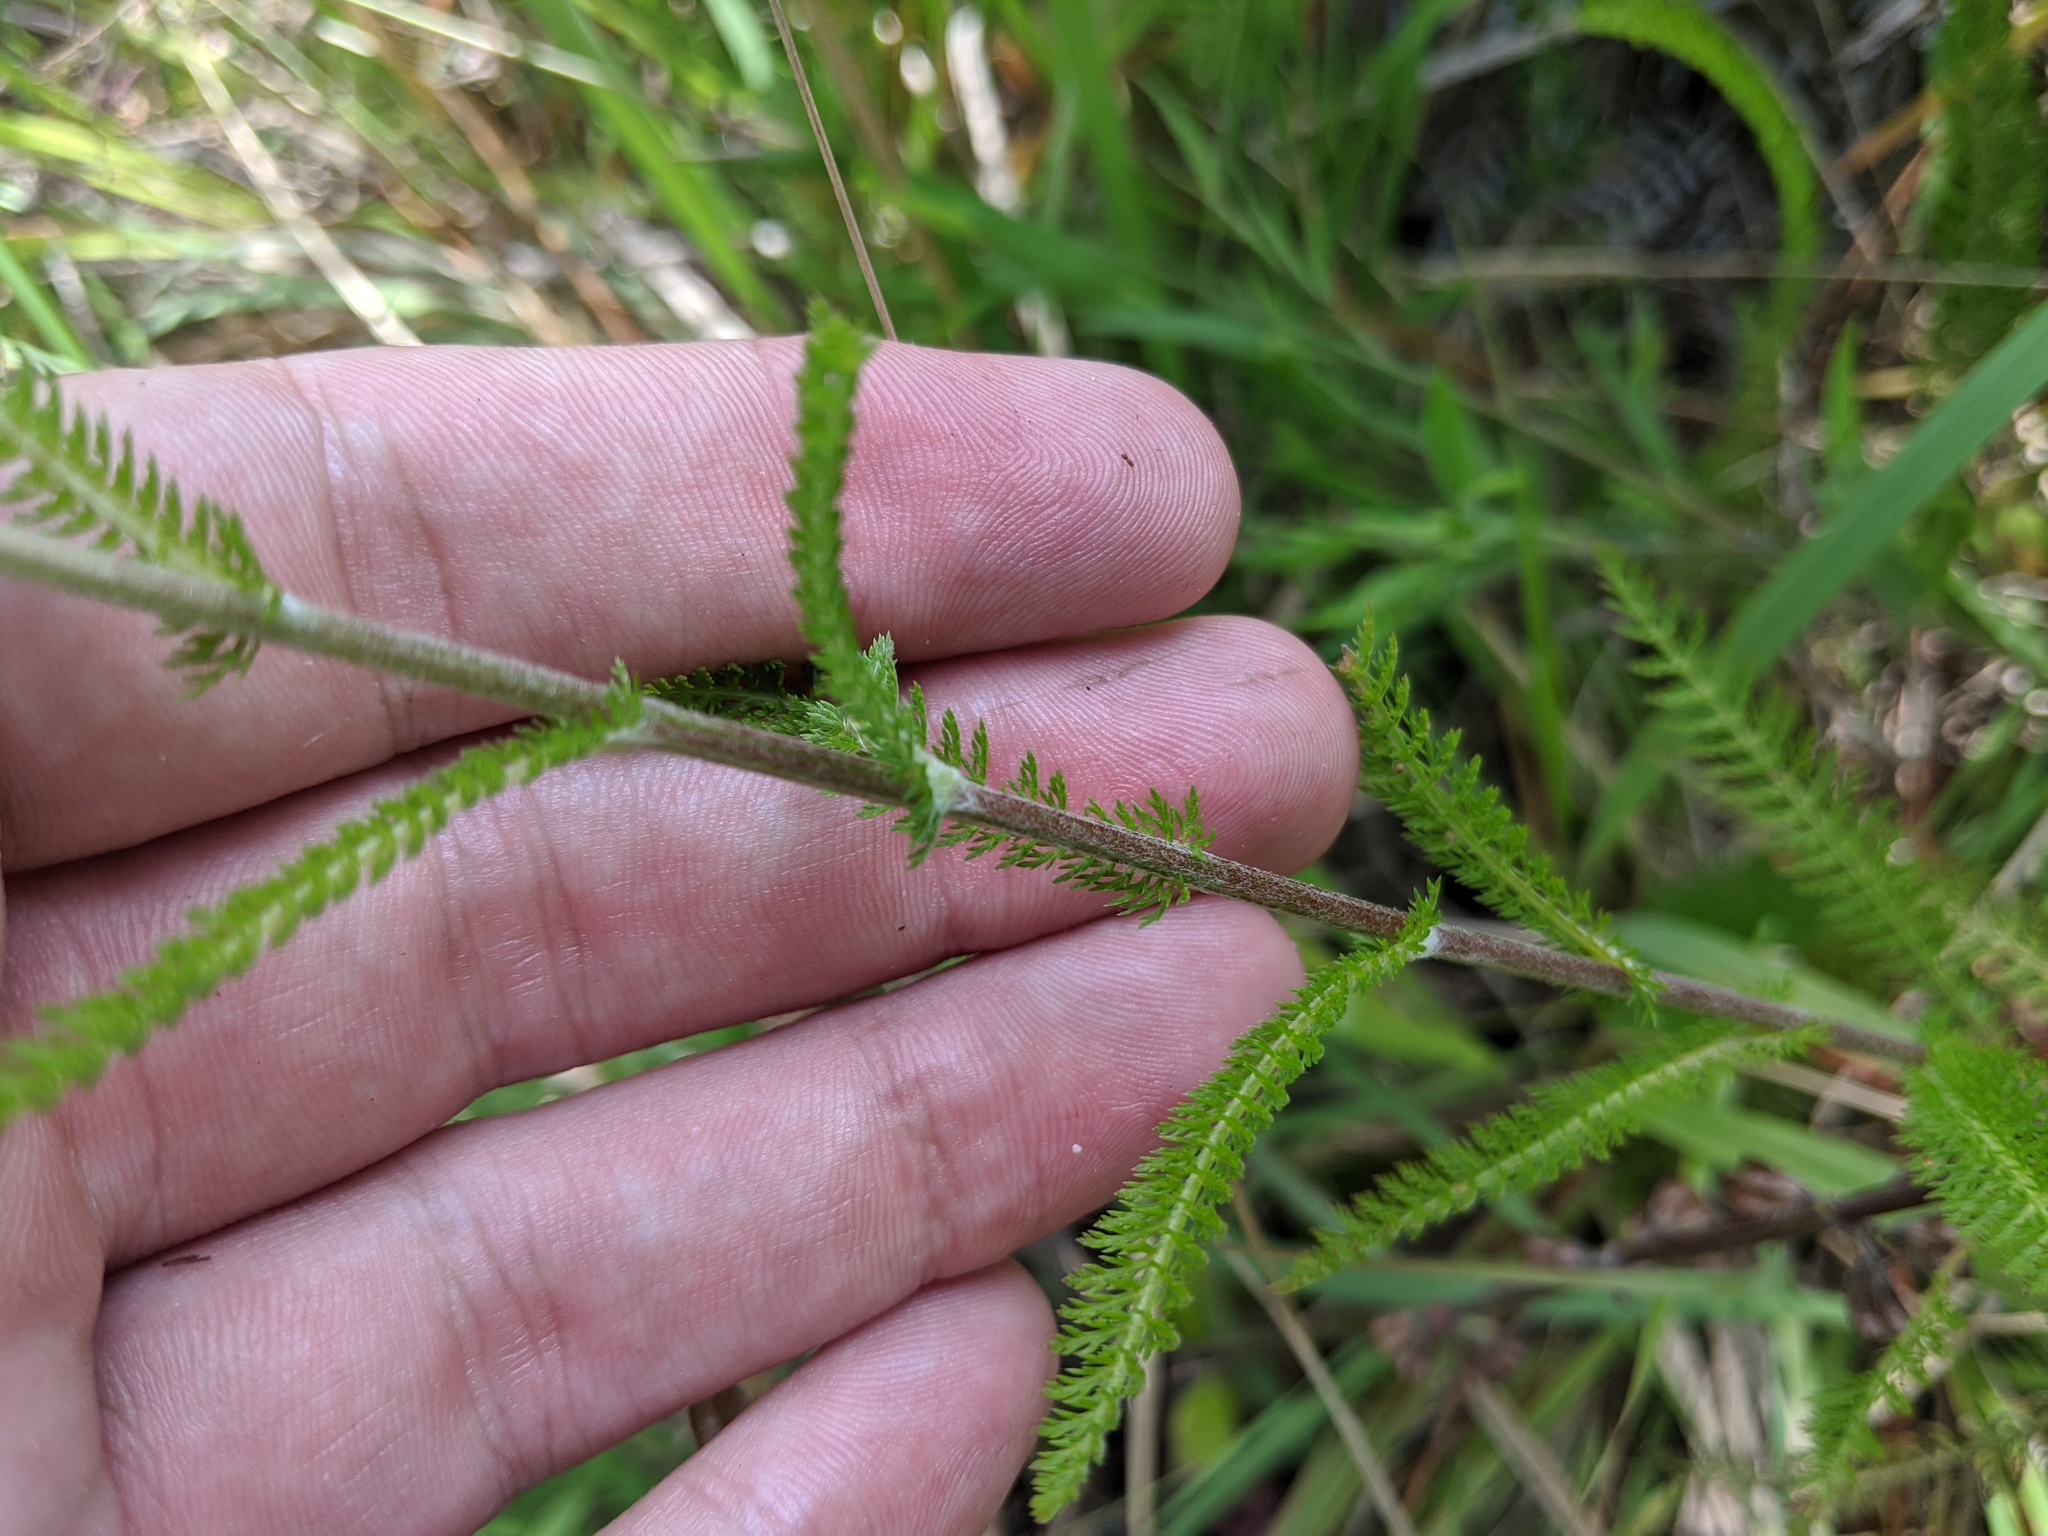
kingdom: Plantae
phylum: Tracheophyta
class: Magnoliopsida
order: Asterales
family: Asteraceae
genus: Achillea
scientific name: Achillea millefolium
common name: Yarrow
